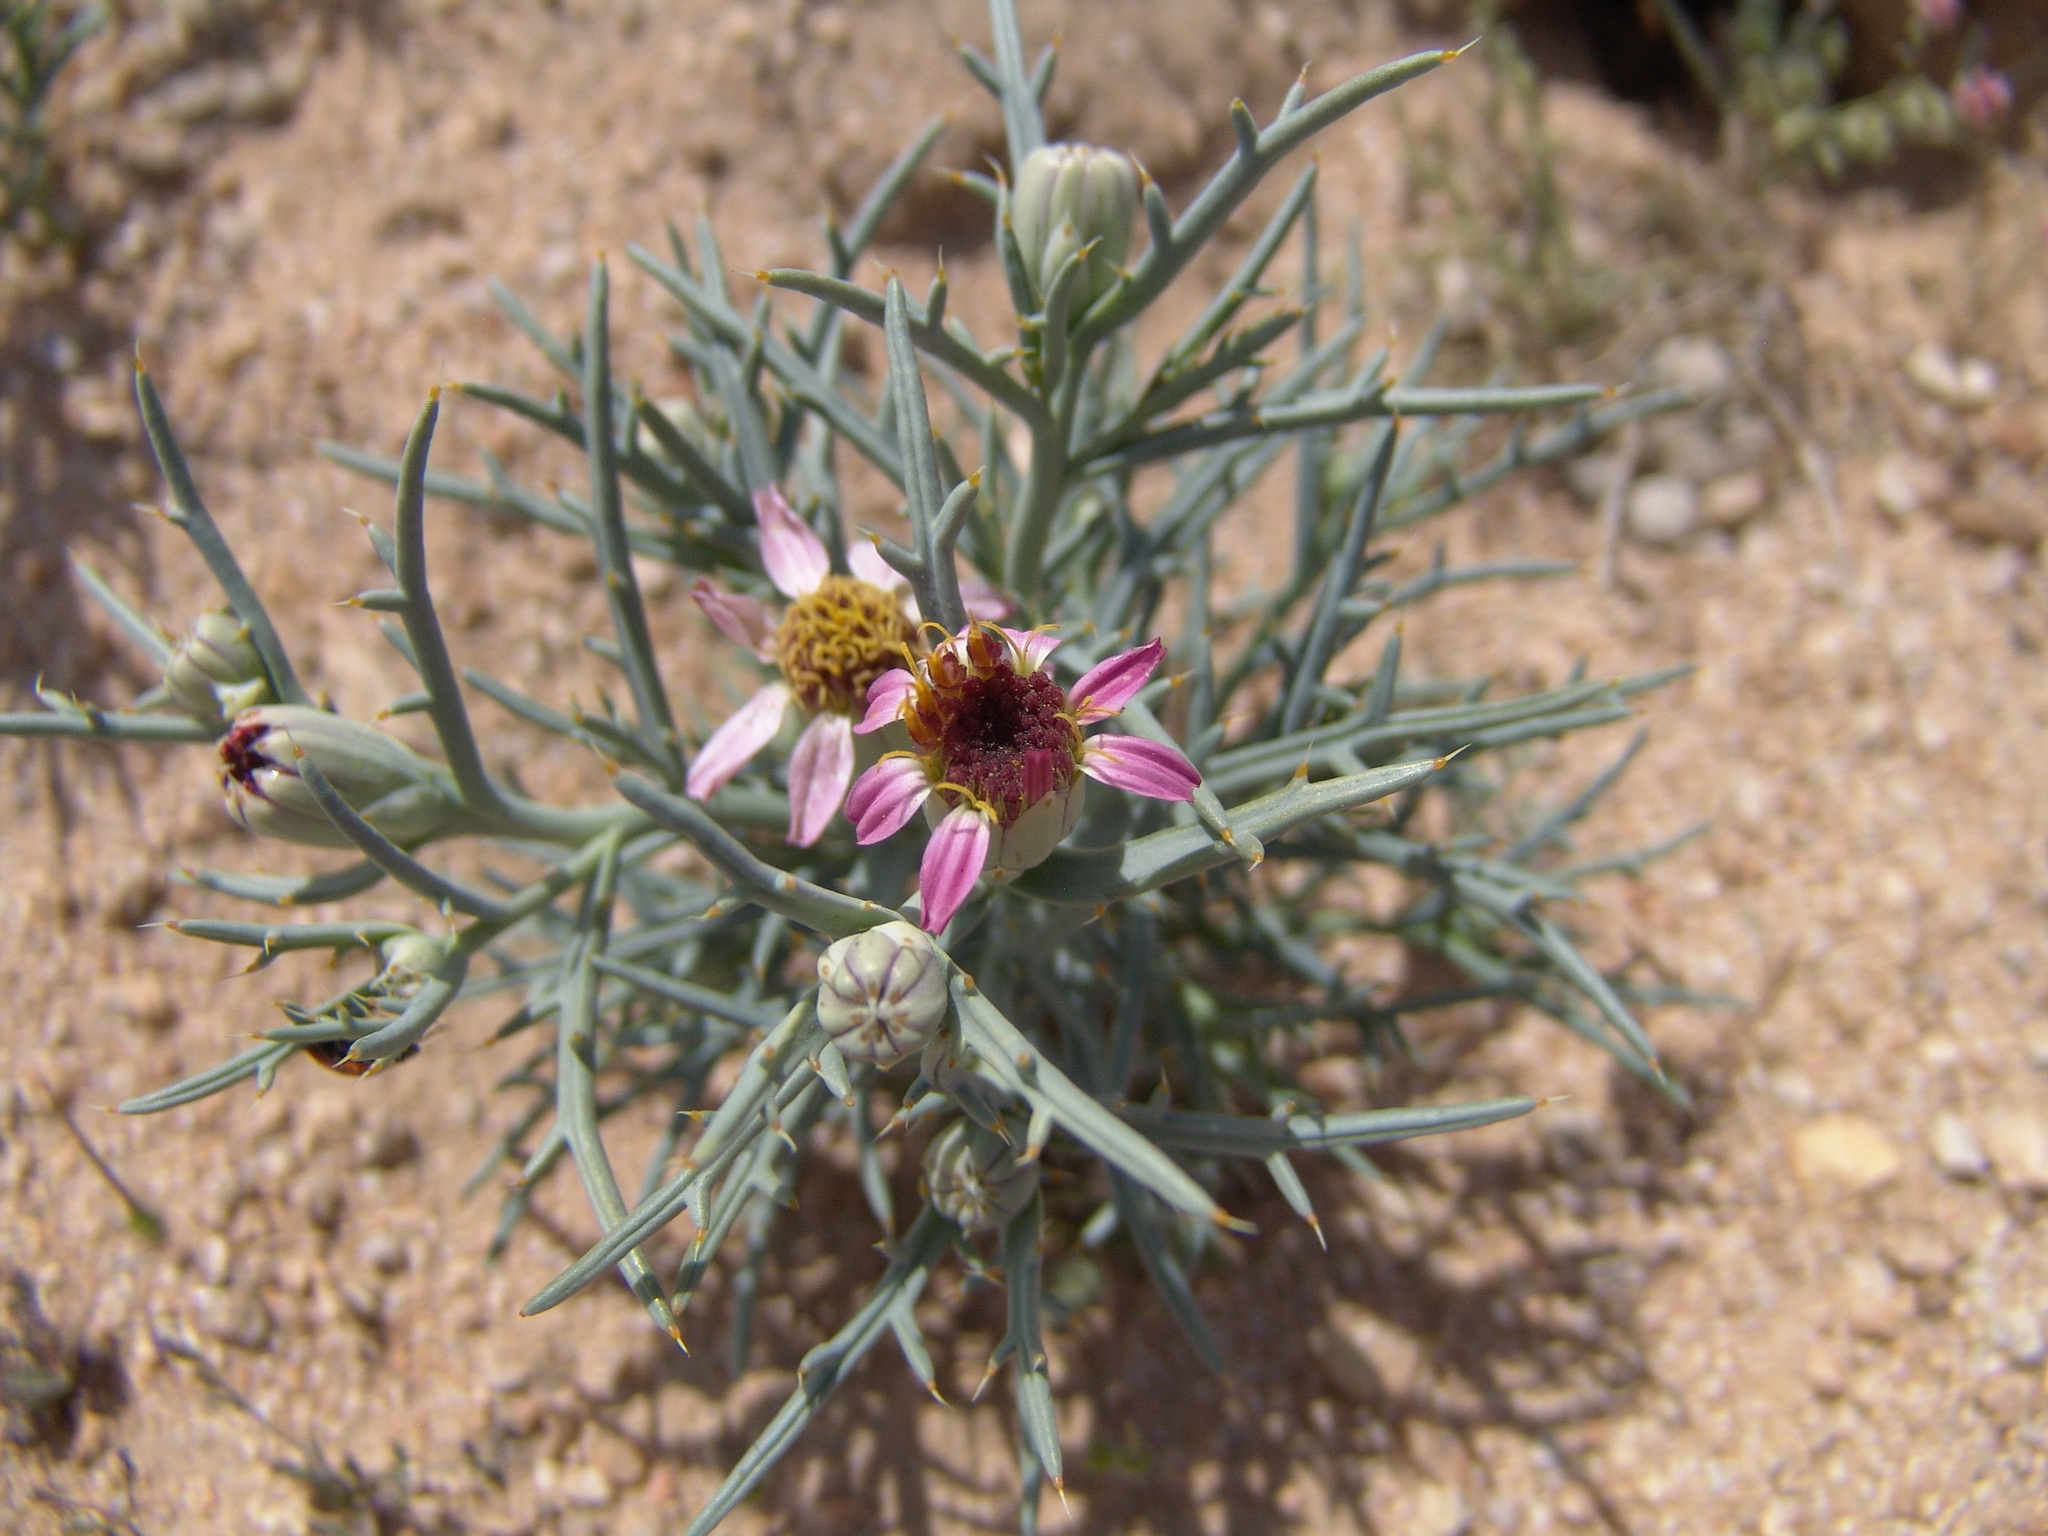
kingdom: Plantae
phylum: Tracheophyta
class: Magnoliopsida
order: Asterales
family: Asteraceae
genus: Nicolletia
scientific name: Nicolletia occidentalis
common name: Hole-in-the-sand-plant
